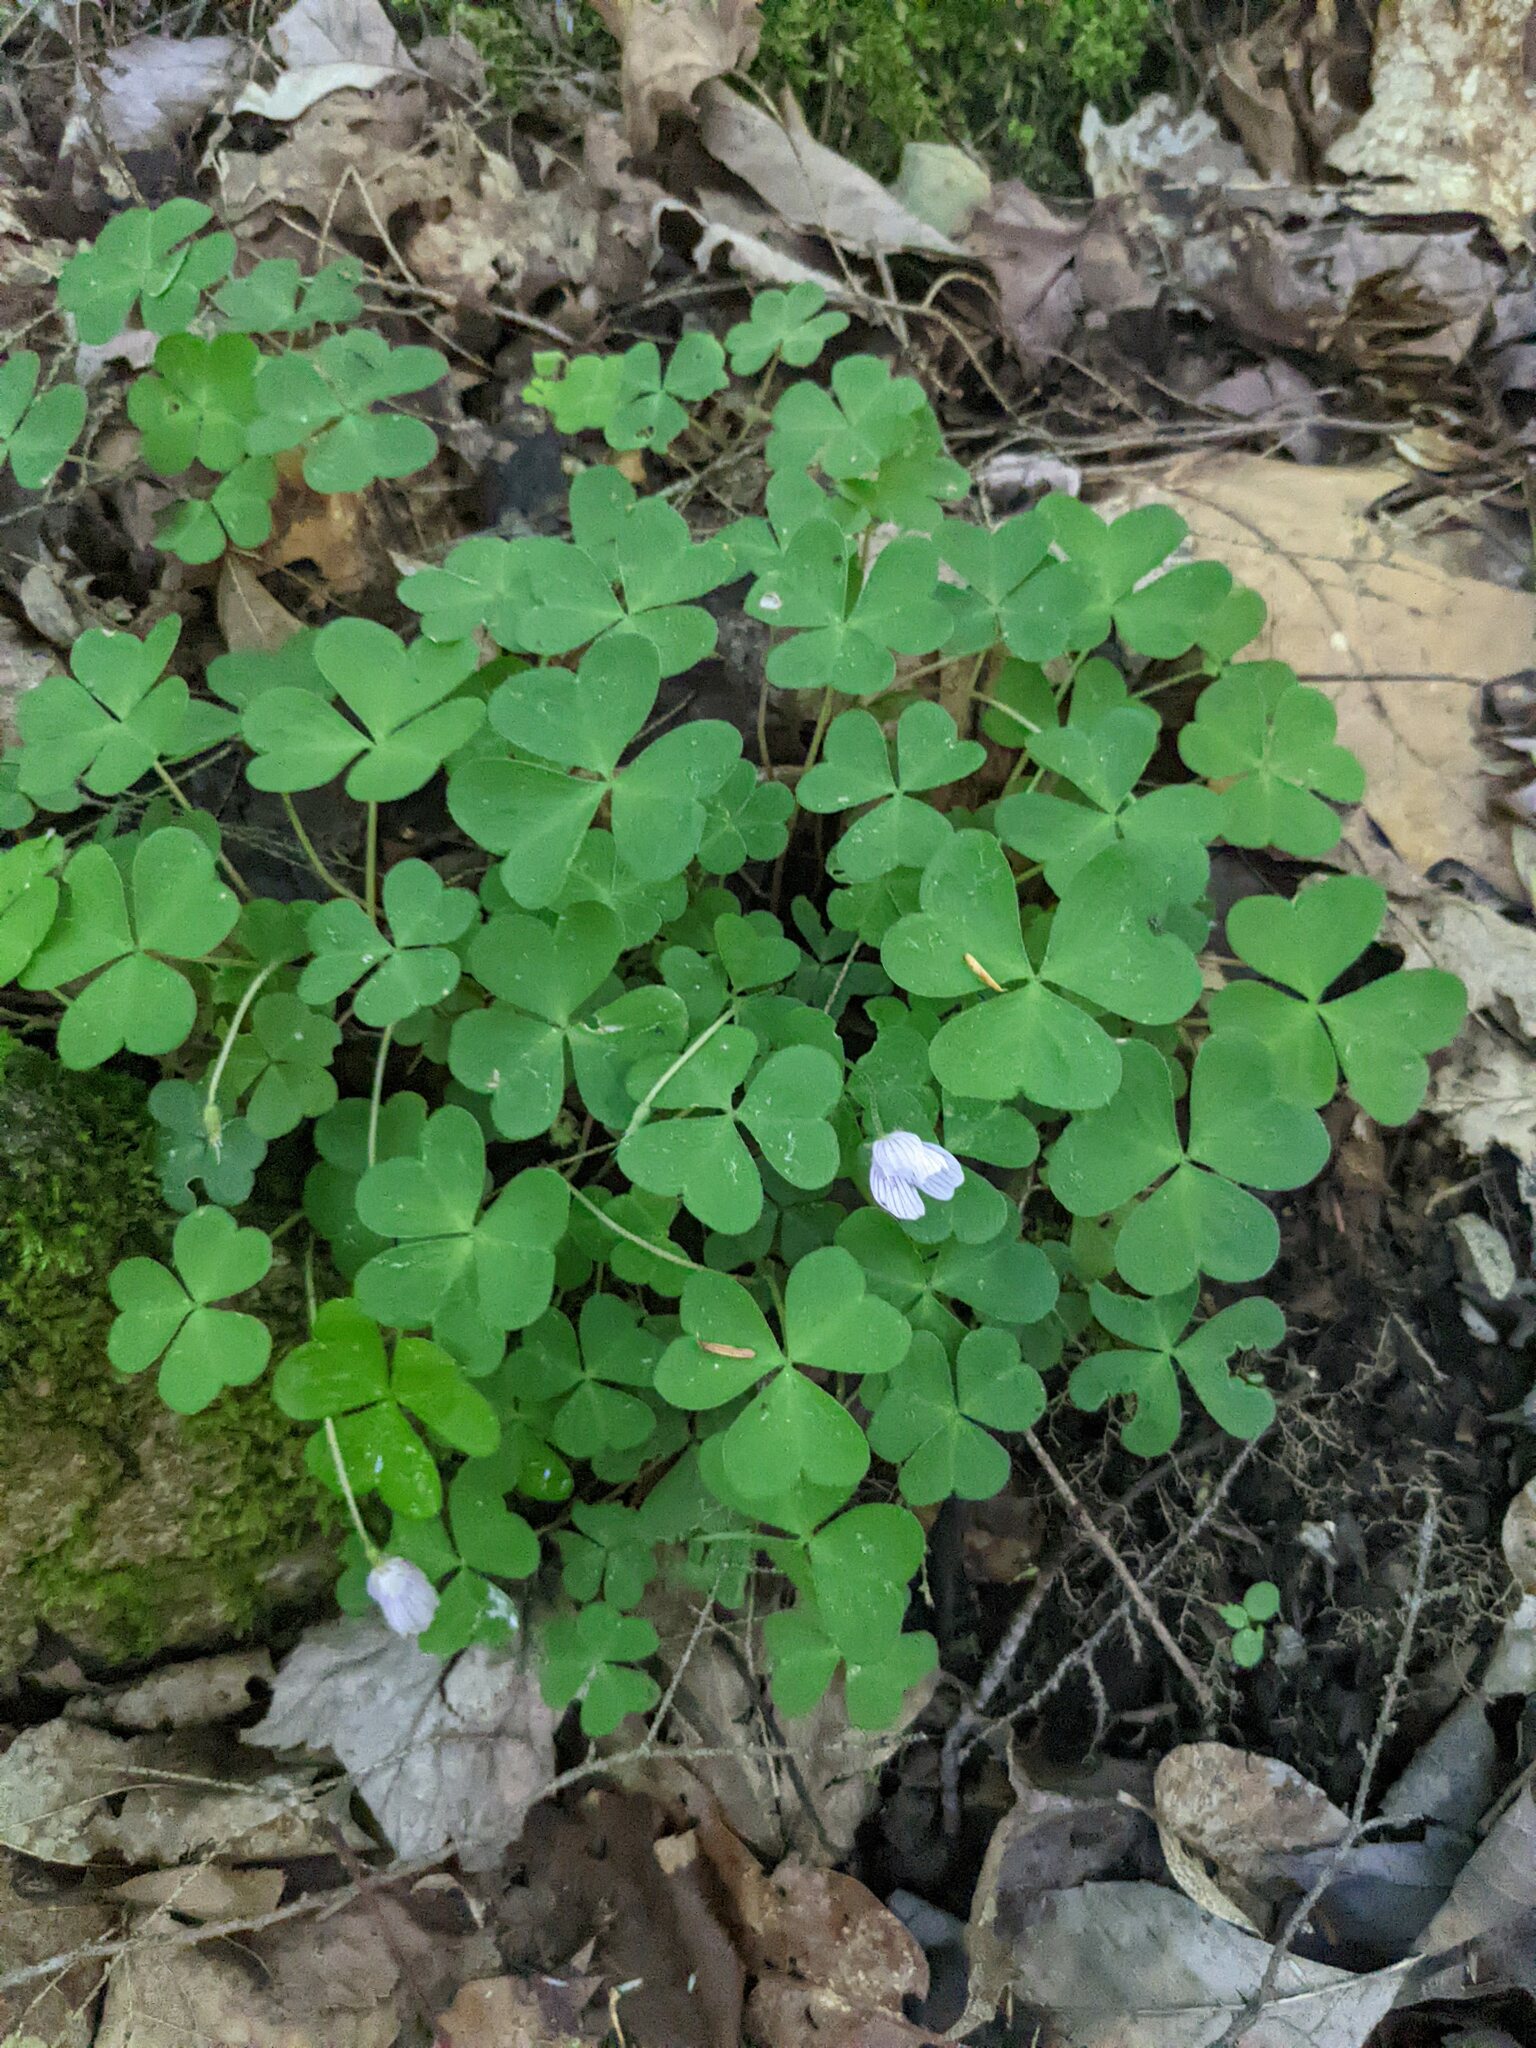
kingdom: Plantae
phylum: Tracheophyta
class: Magnoliopsida
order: Oxalidales
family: Oxalidaceae
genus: Oxalis
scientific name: Oxalis montana
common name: American wood-sorrel
